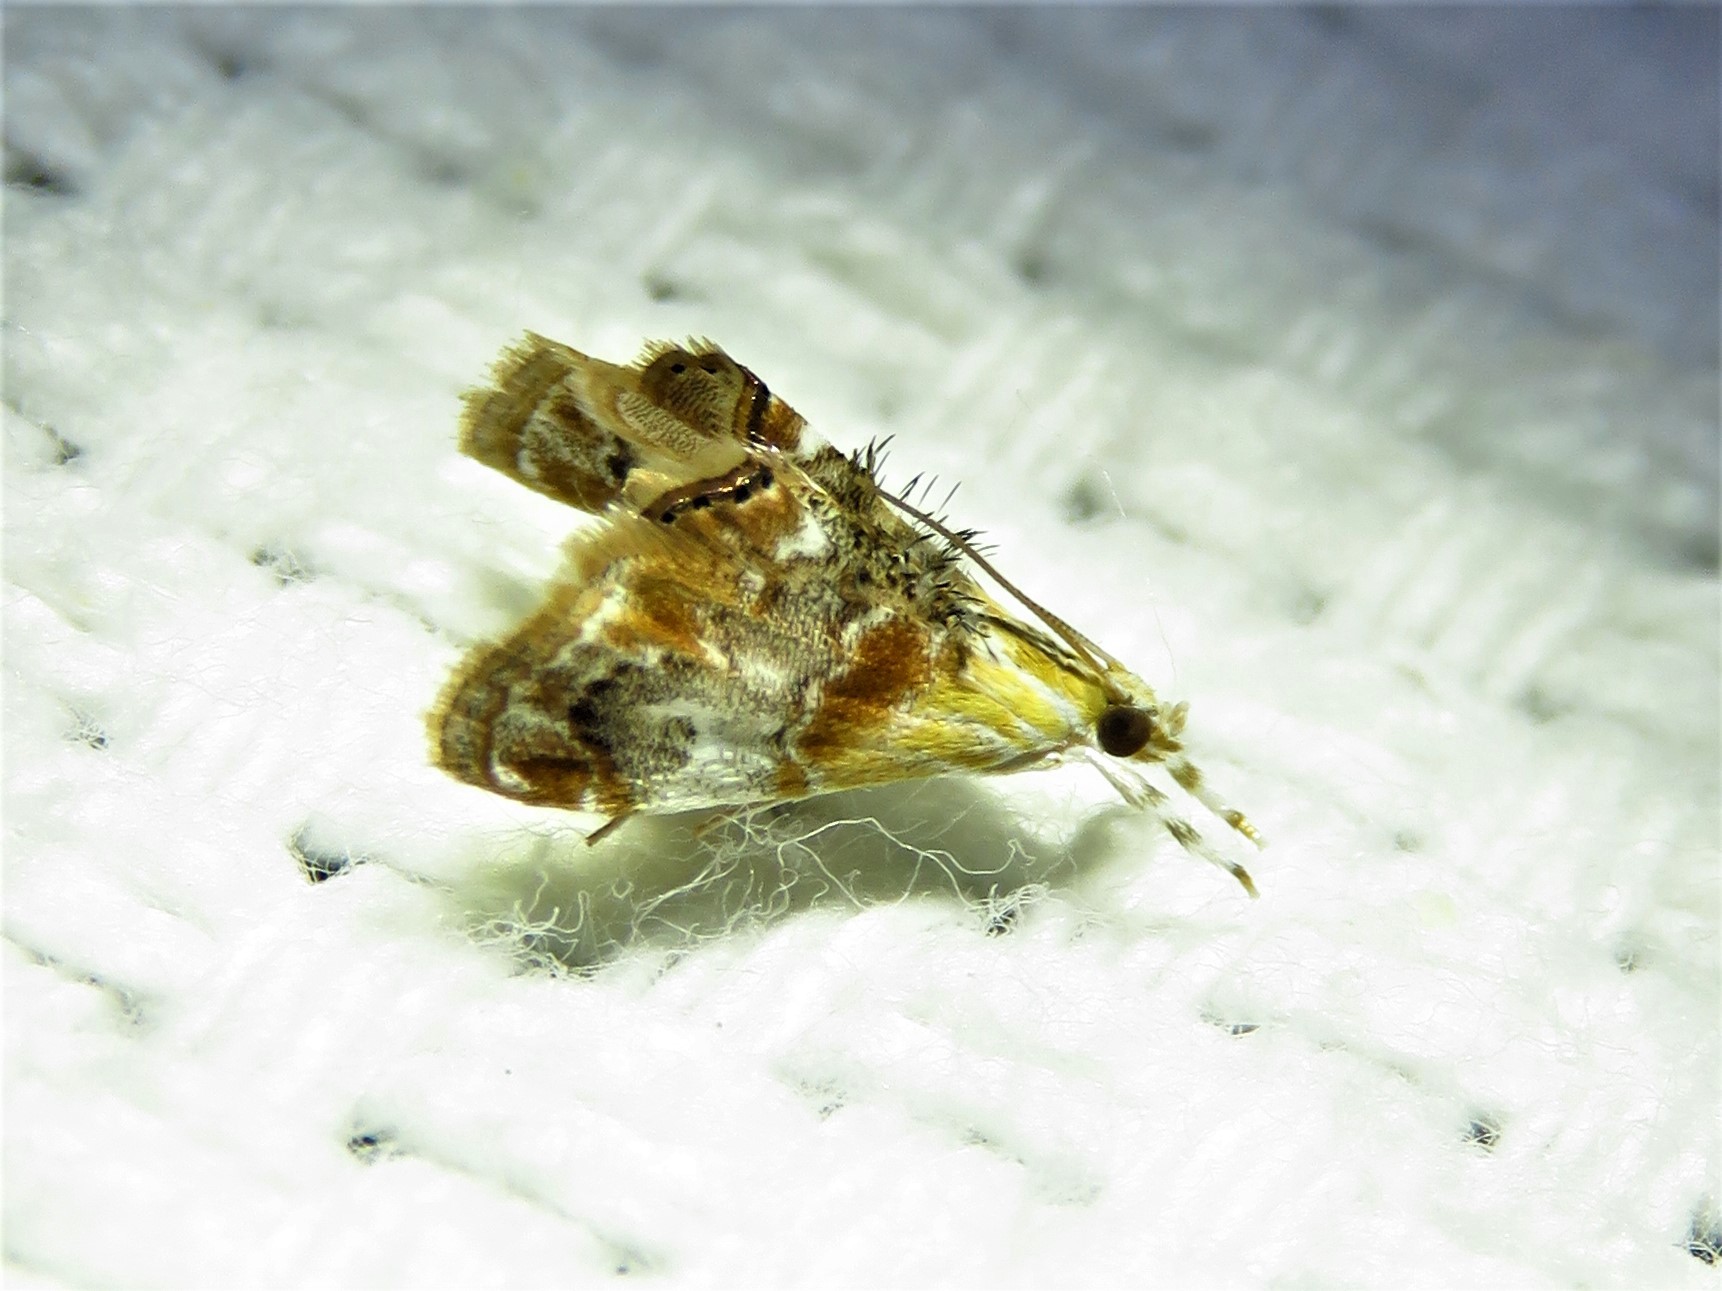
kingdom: Animalia
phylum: Arthropoda
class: Insecta
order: Lepidoptera
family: Crambidae
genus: Dicymolomia
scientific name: Dicymolomia julianalis
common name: Julia's dicymolomia moth
